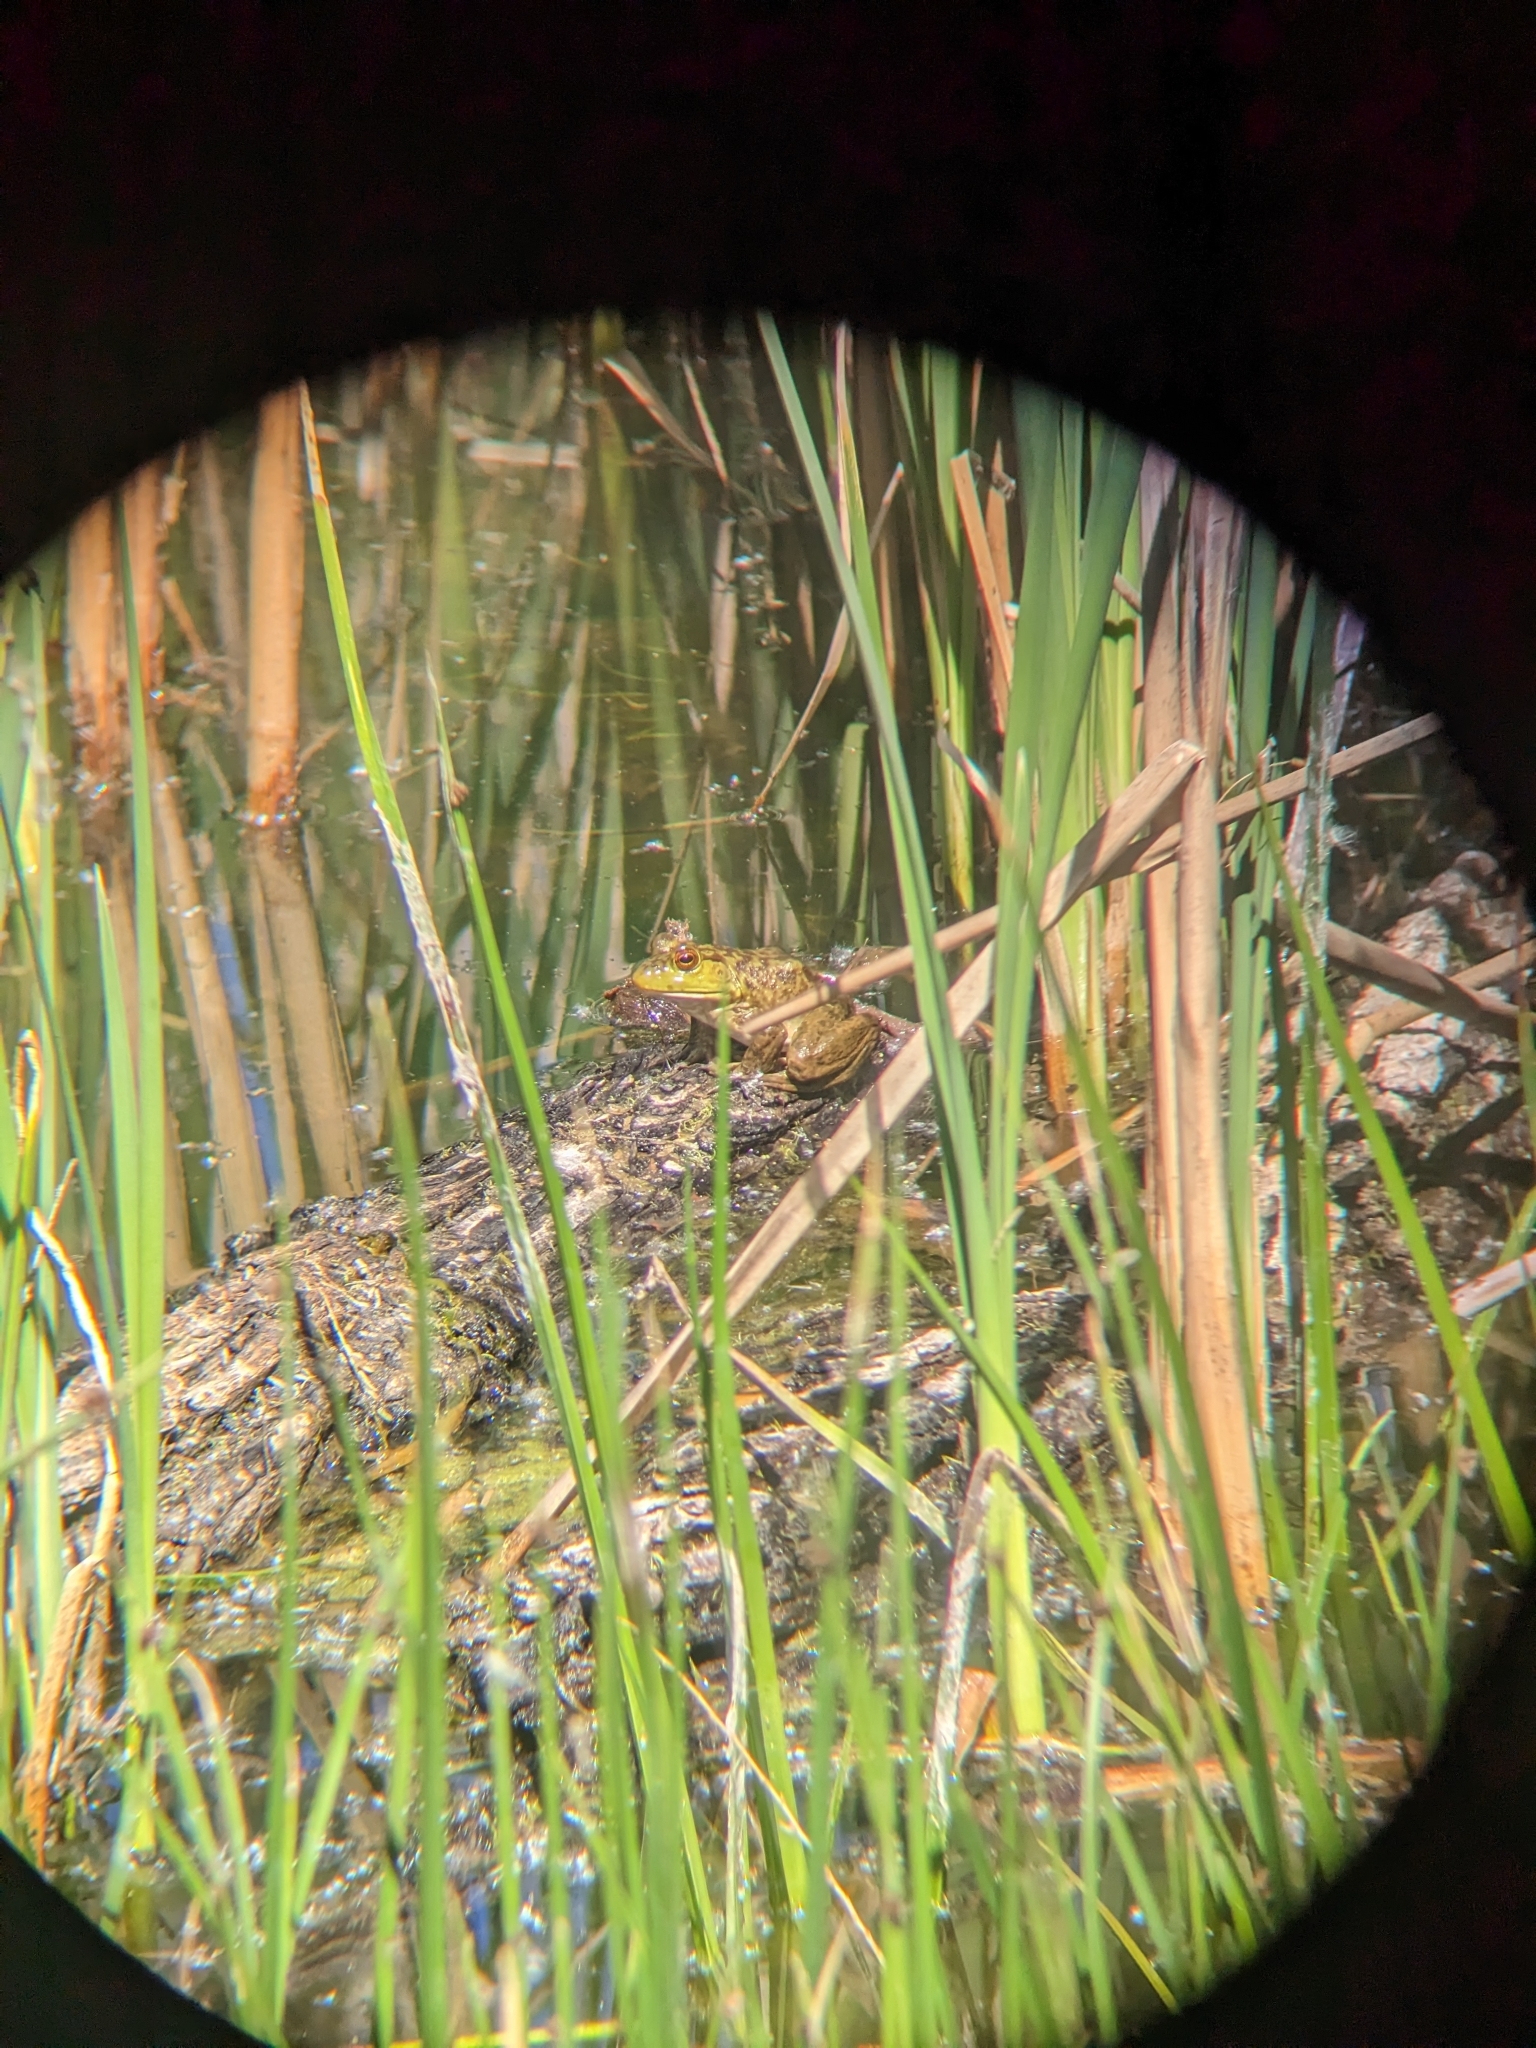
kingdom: Animalia
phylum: Chordata
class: Amphibia
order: Anura
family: Ranidae
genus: Lithobates
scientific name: Lithobates catesbeianus
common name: American bullfrog
